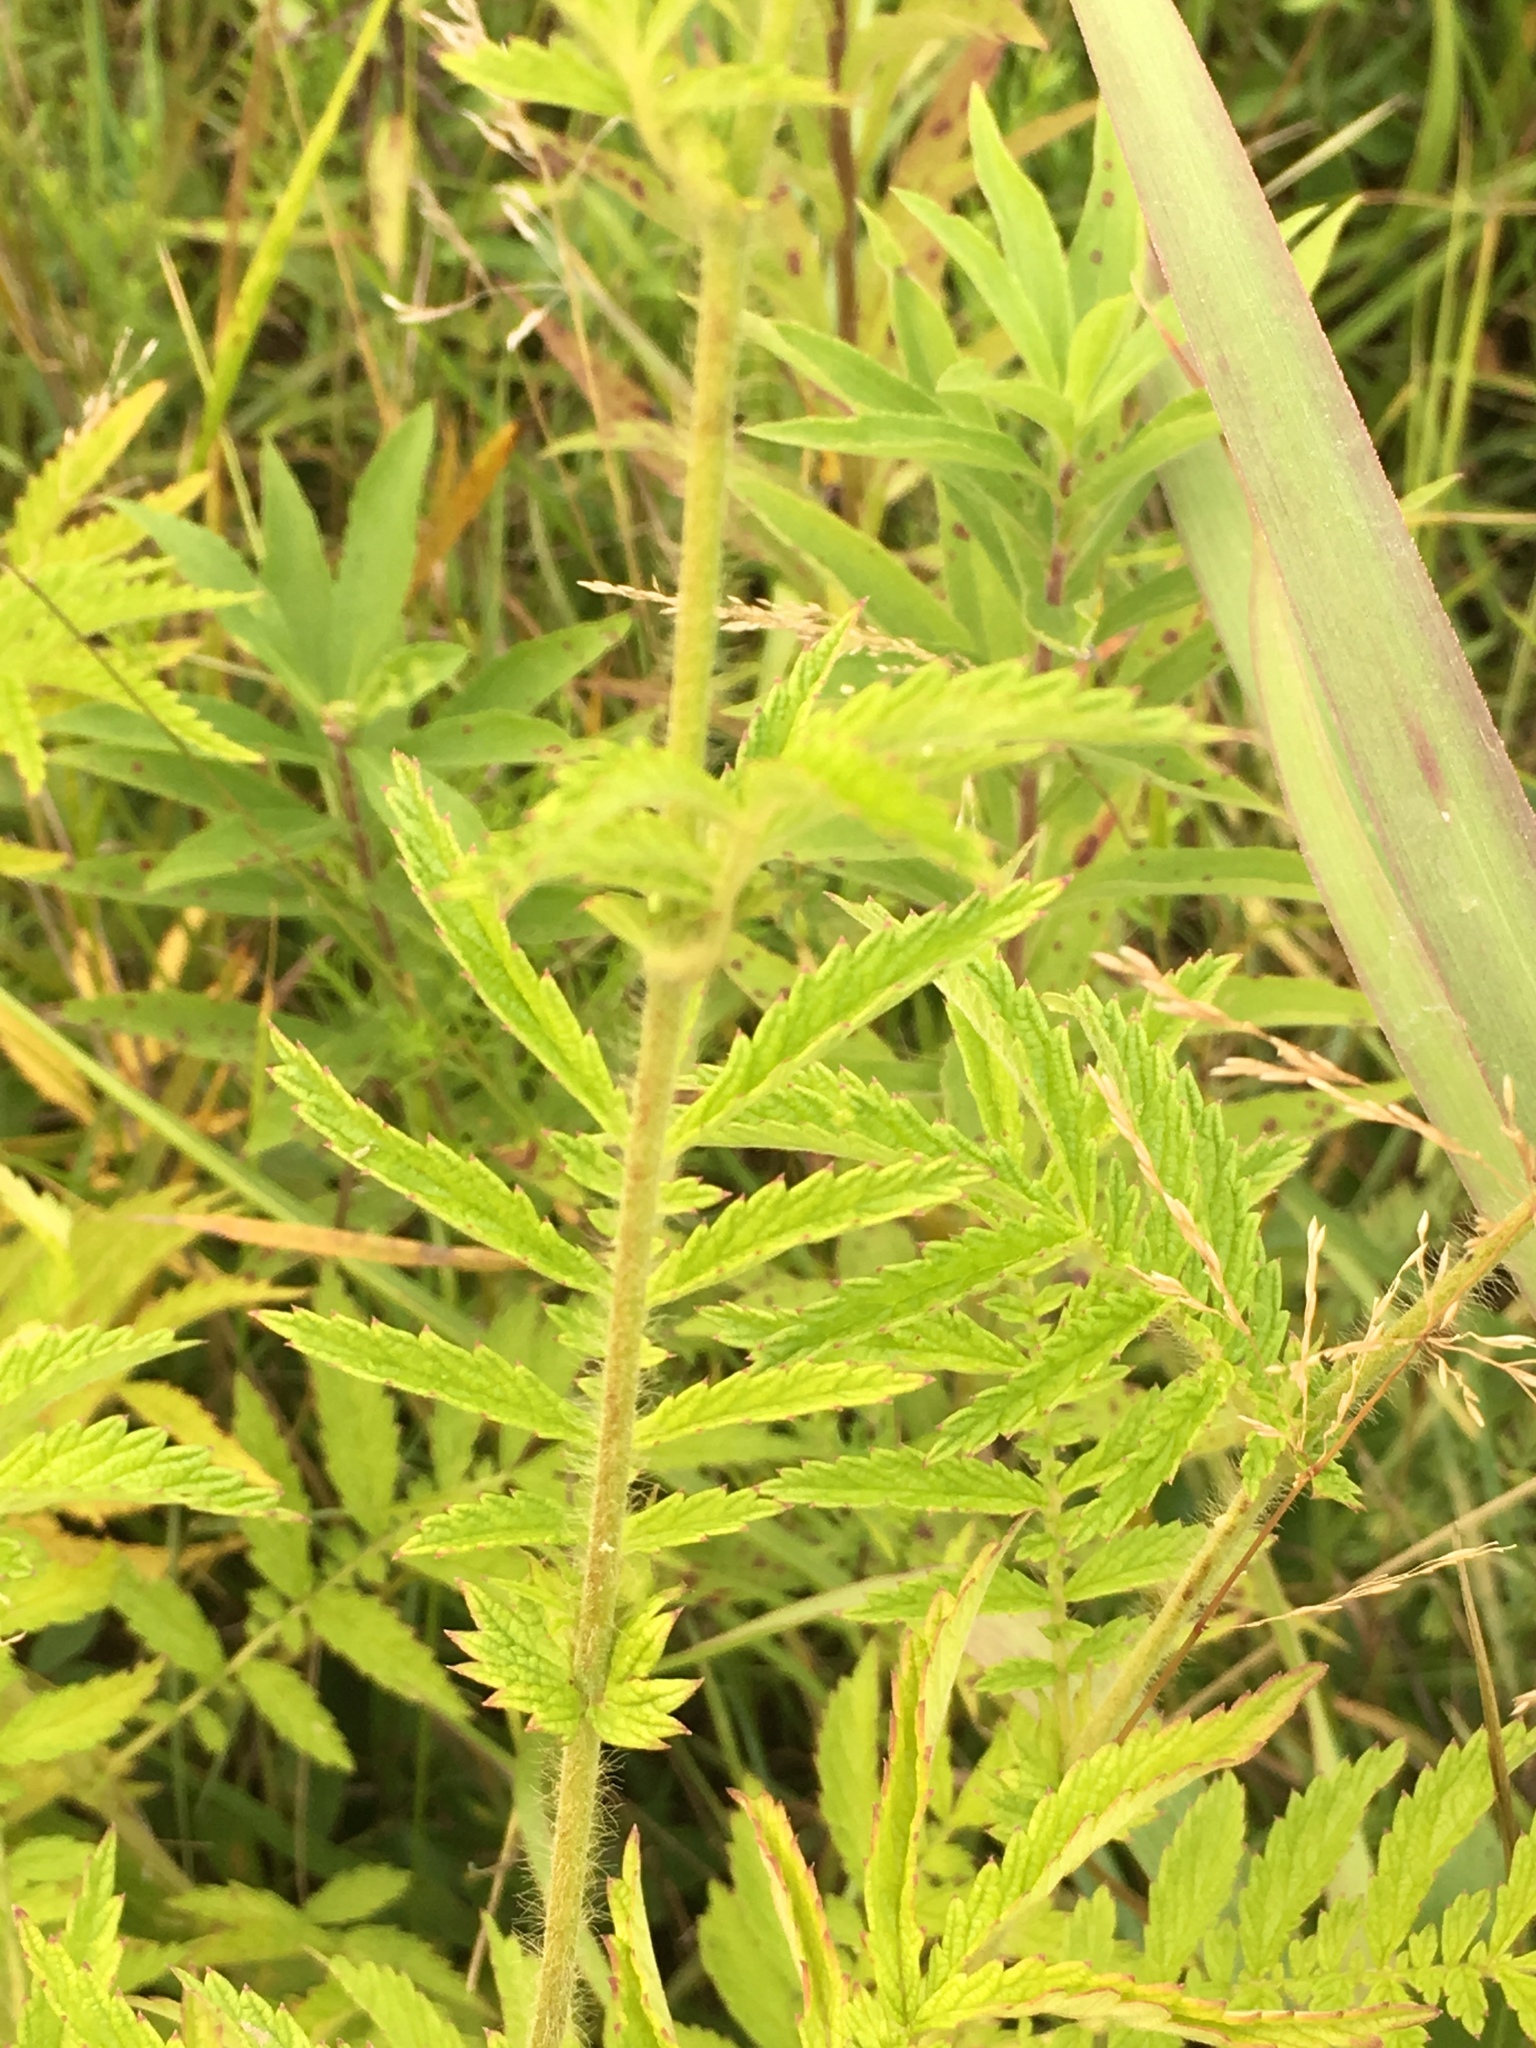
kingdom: Plantae
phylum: Tracheophyta
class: Magnoliopsida
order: Rosales
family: Rosaceae
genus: Agrimonia
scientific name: Agrimonia parviflora
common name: Harvest-lice
